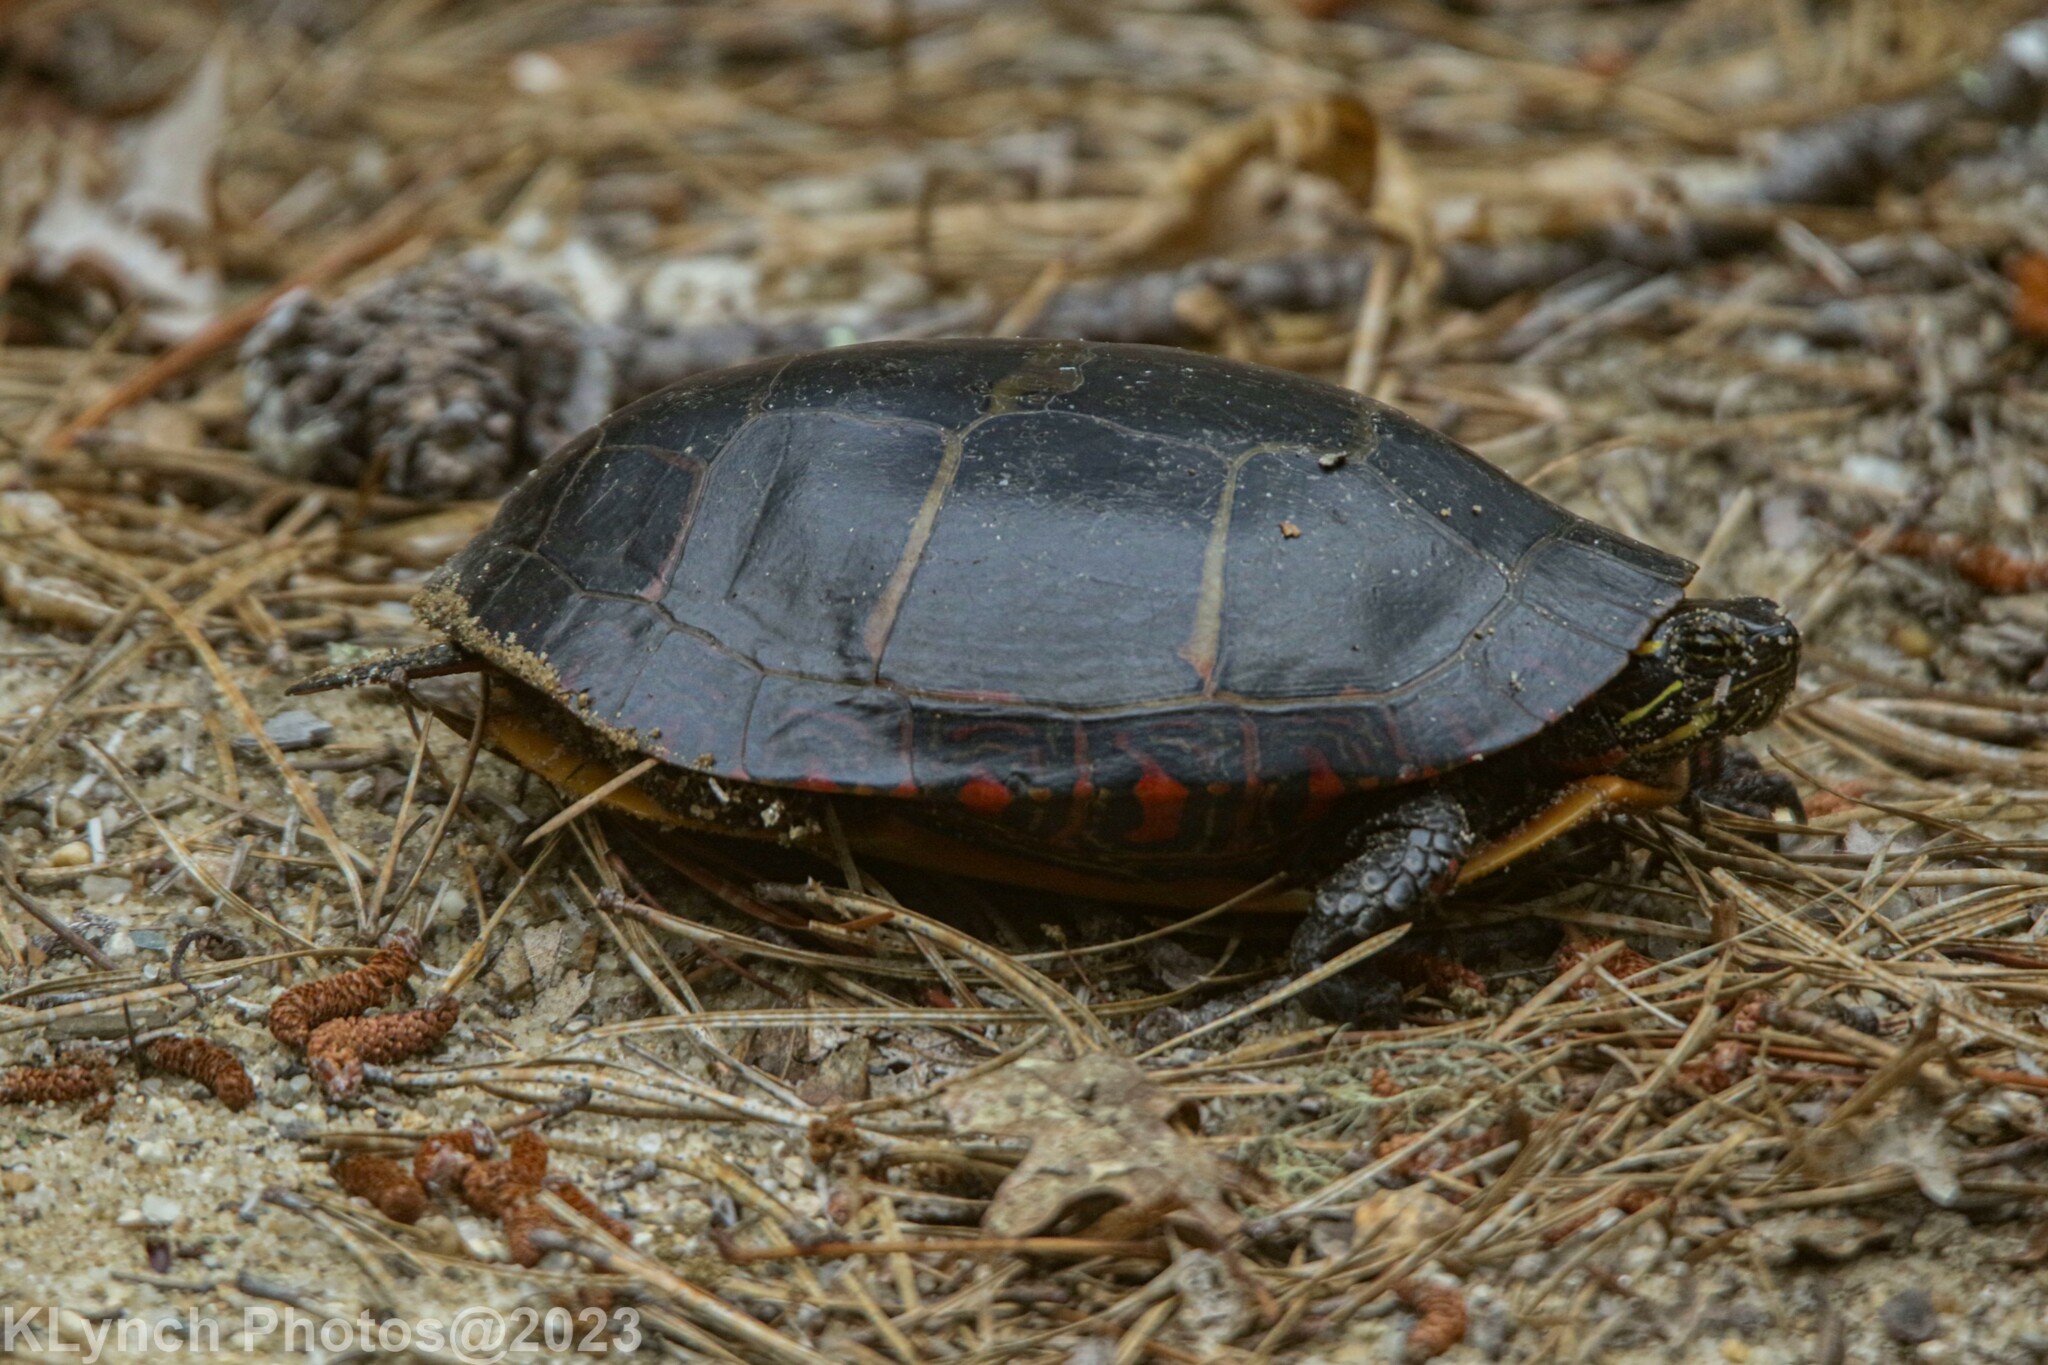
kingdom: Animalia
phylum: Chordata
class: Testudines
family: Emydidae
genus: Chrysemys
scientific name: Chrysemys picta
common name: Painted turtle
